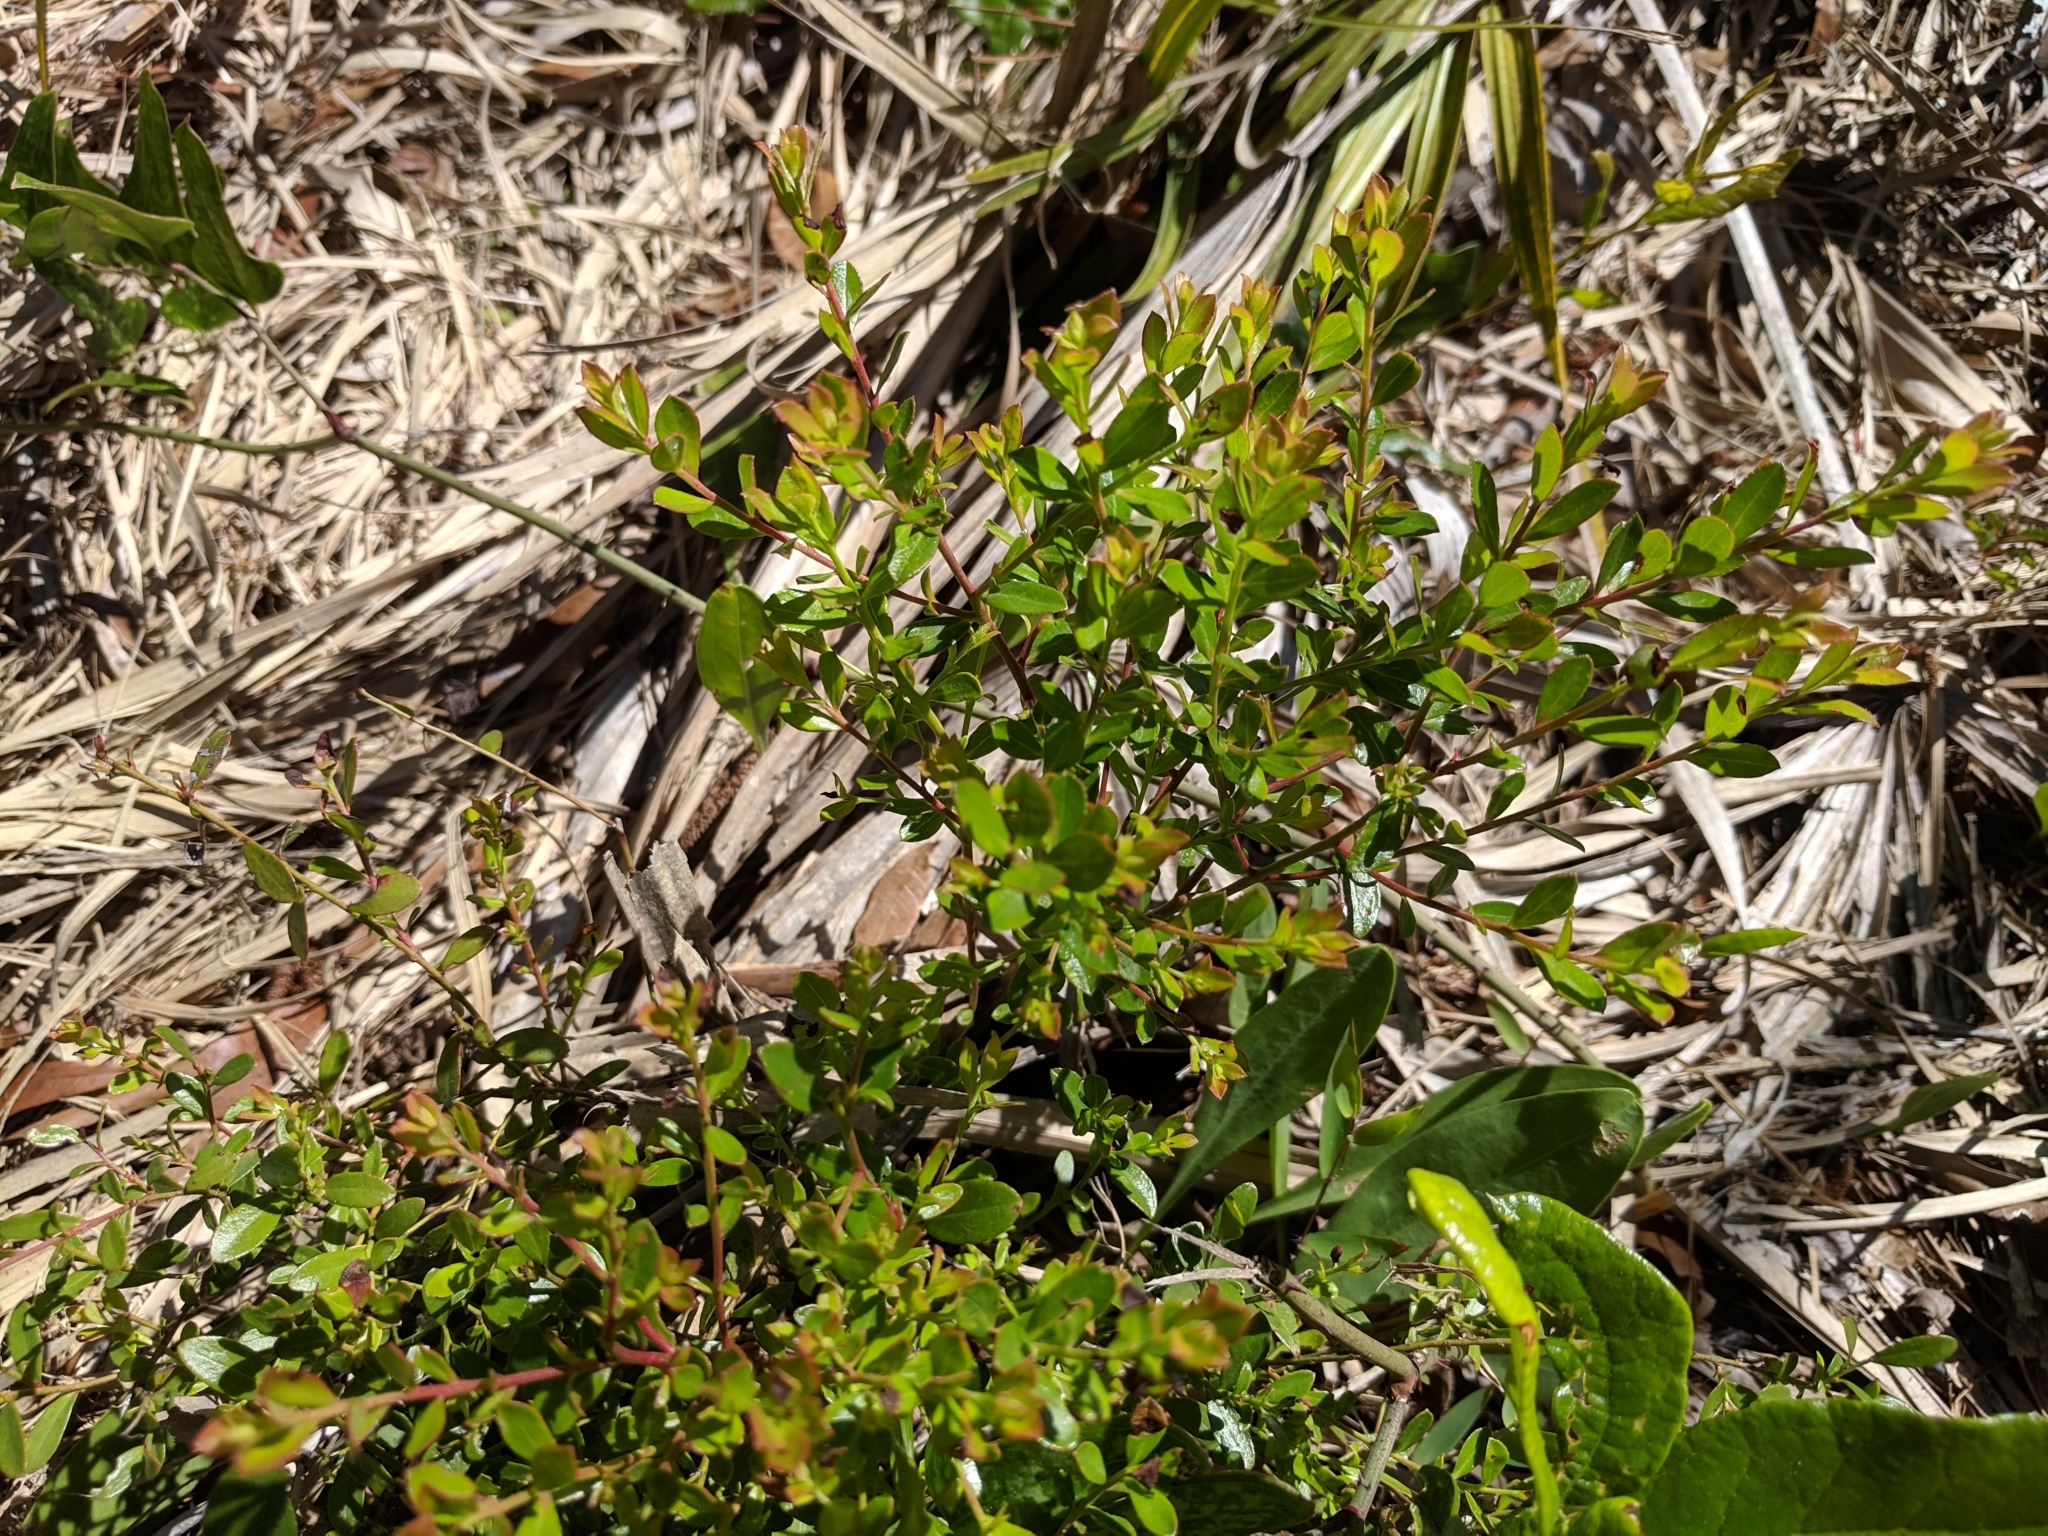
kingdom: Plantae
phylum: Tracheophyta
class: Magnoliopsida
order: Ericales
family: Ericaceae
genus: Vaccinium
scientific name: Vaccinium myrsinites
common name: Evergreen blueberry
